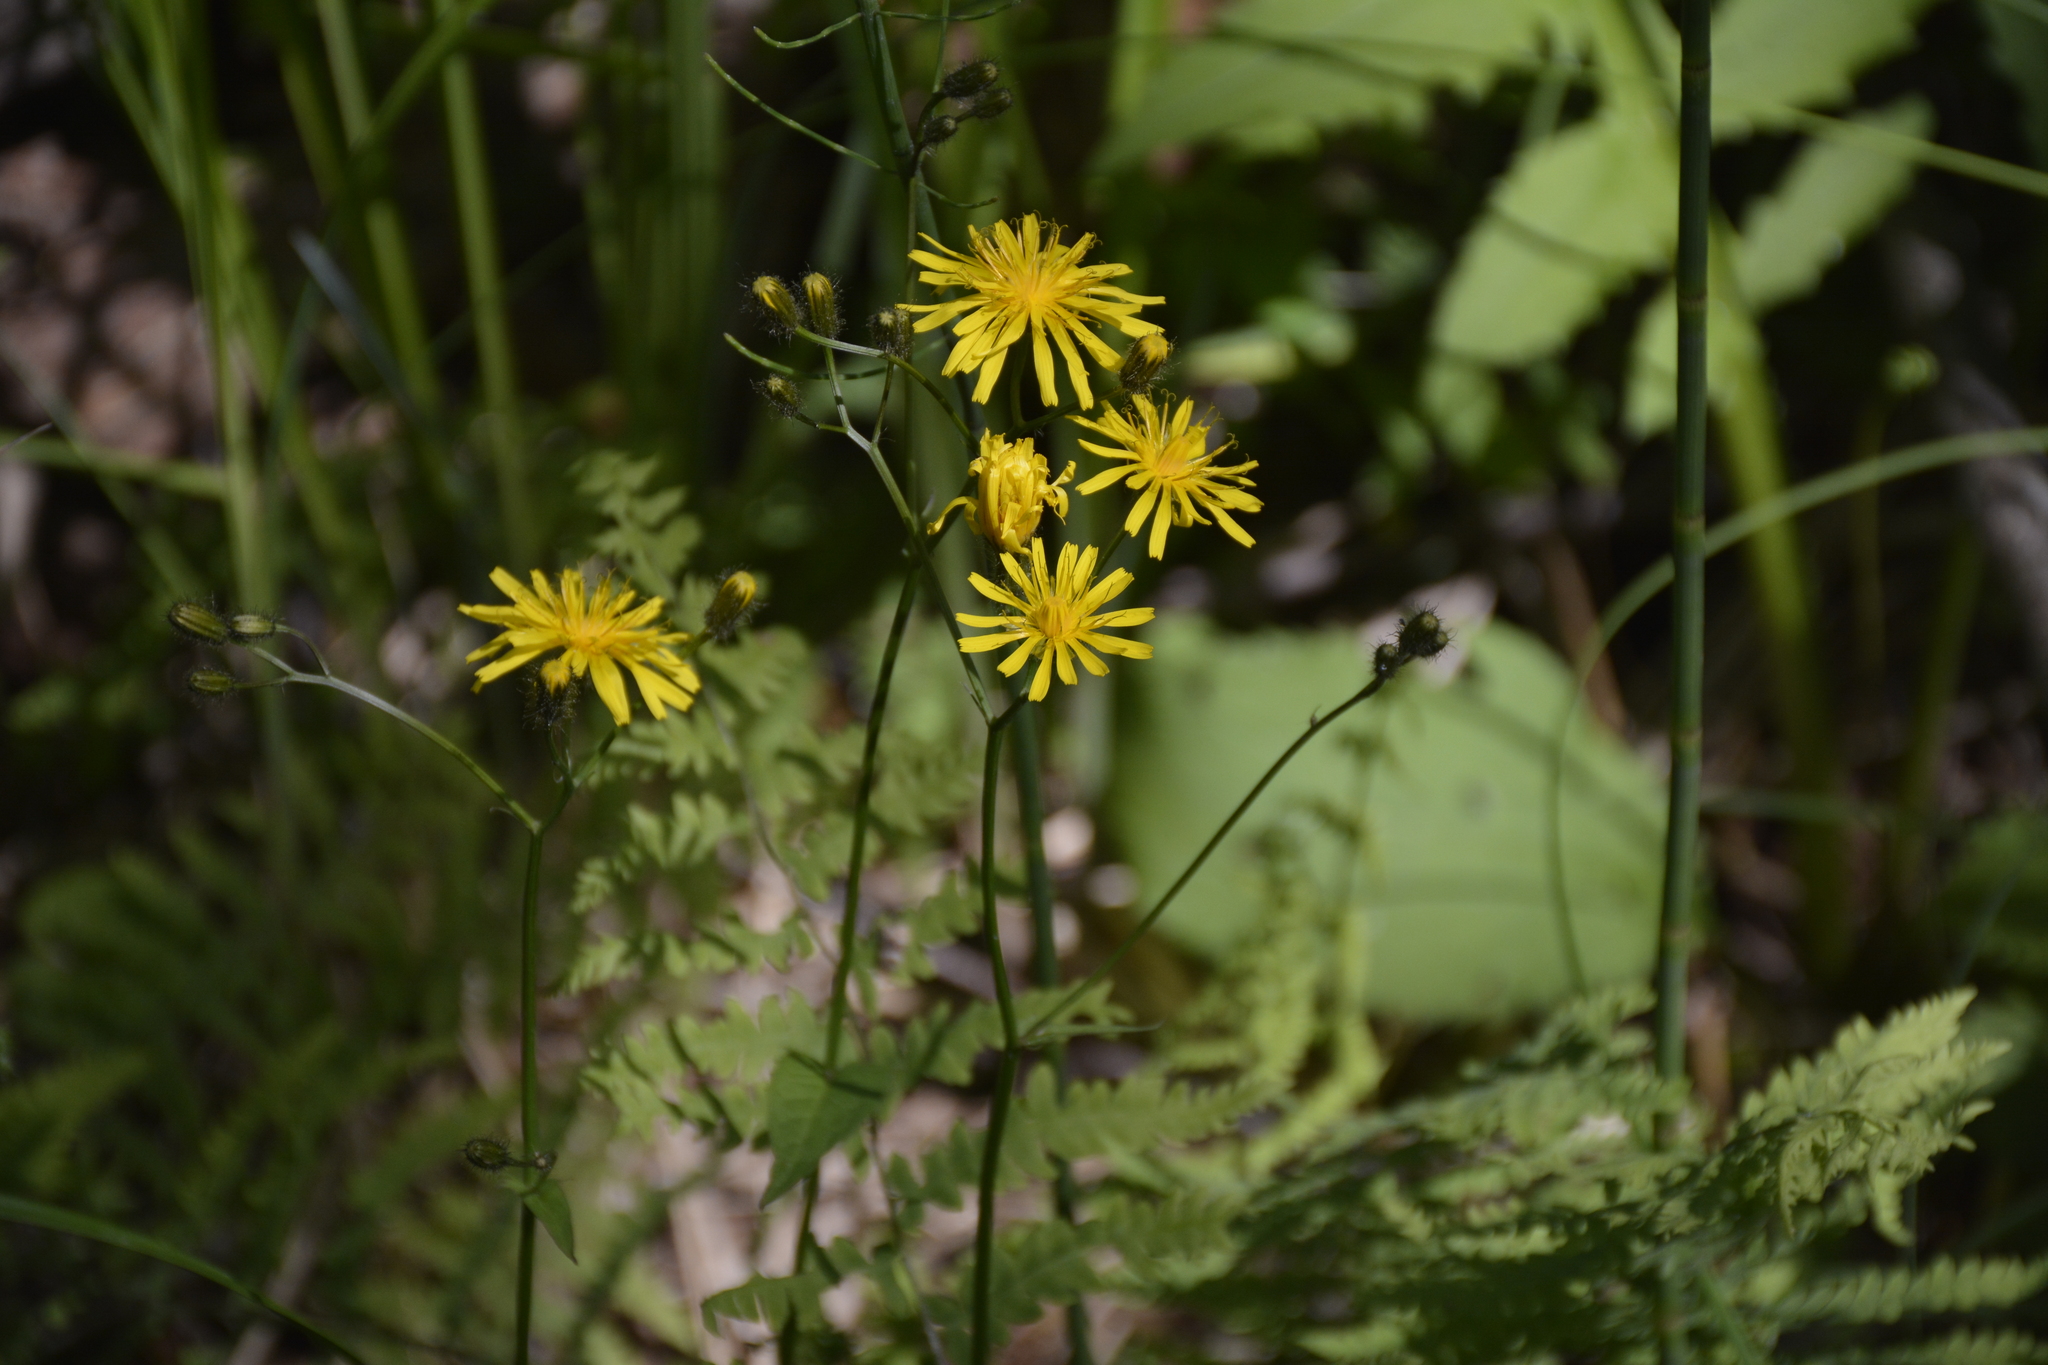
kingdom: Plantae
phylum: Tracheophyta
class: Magnoliopsida
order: Asterales
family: Asteraceae
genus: Crepis
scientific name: Crepis paludosa
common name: Marsh hawk's-beard
